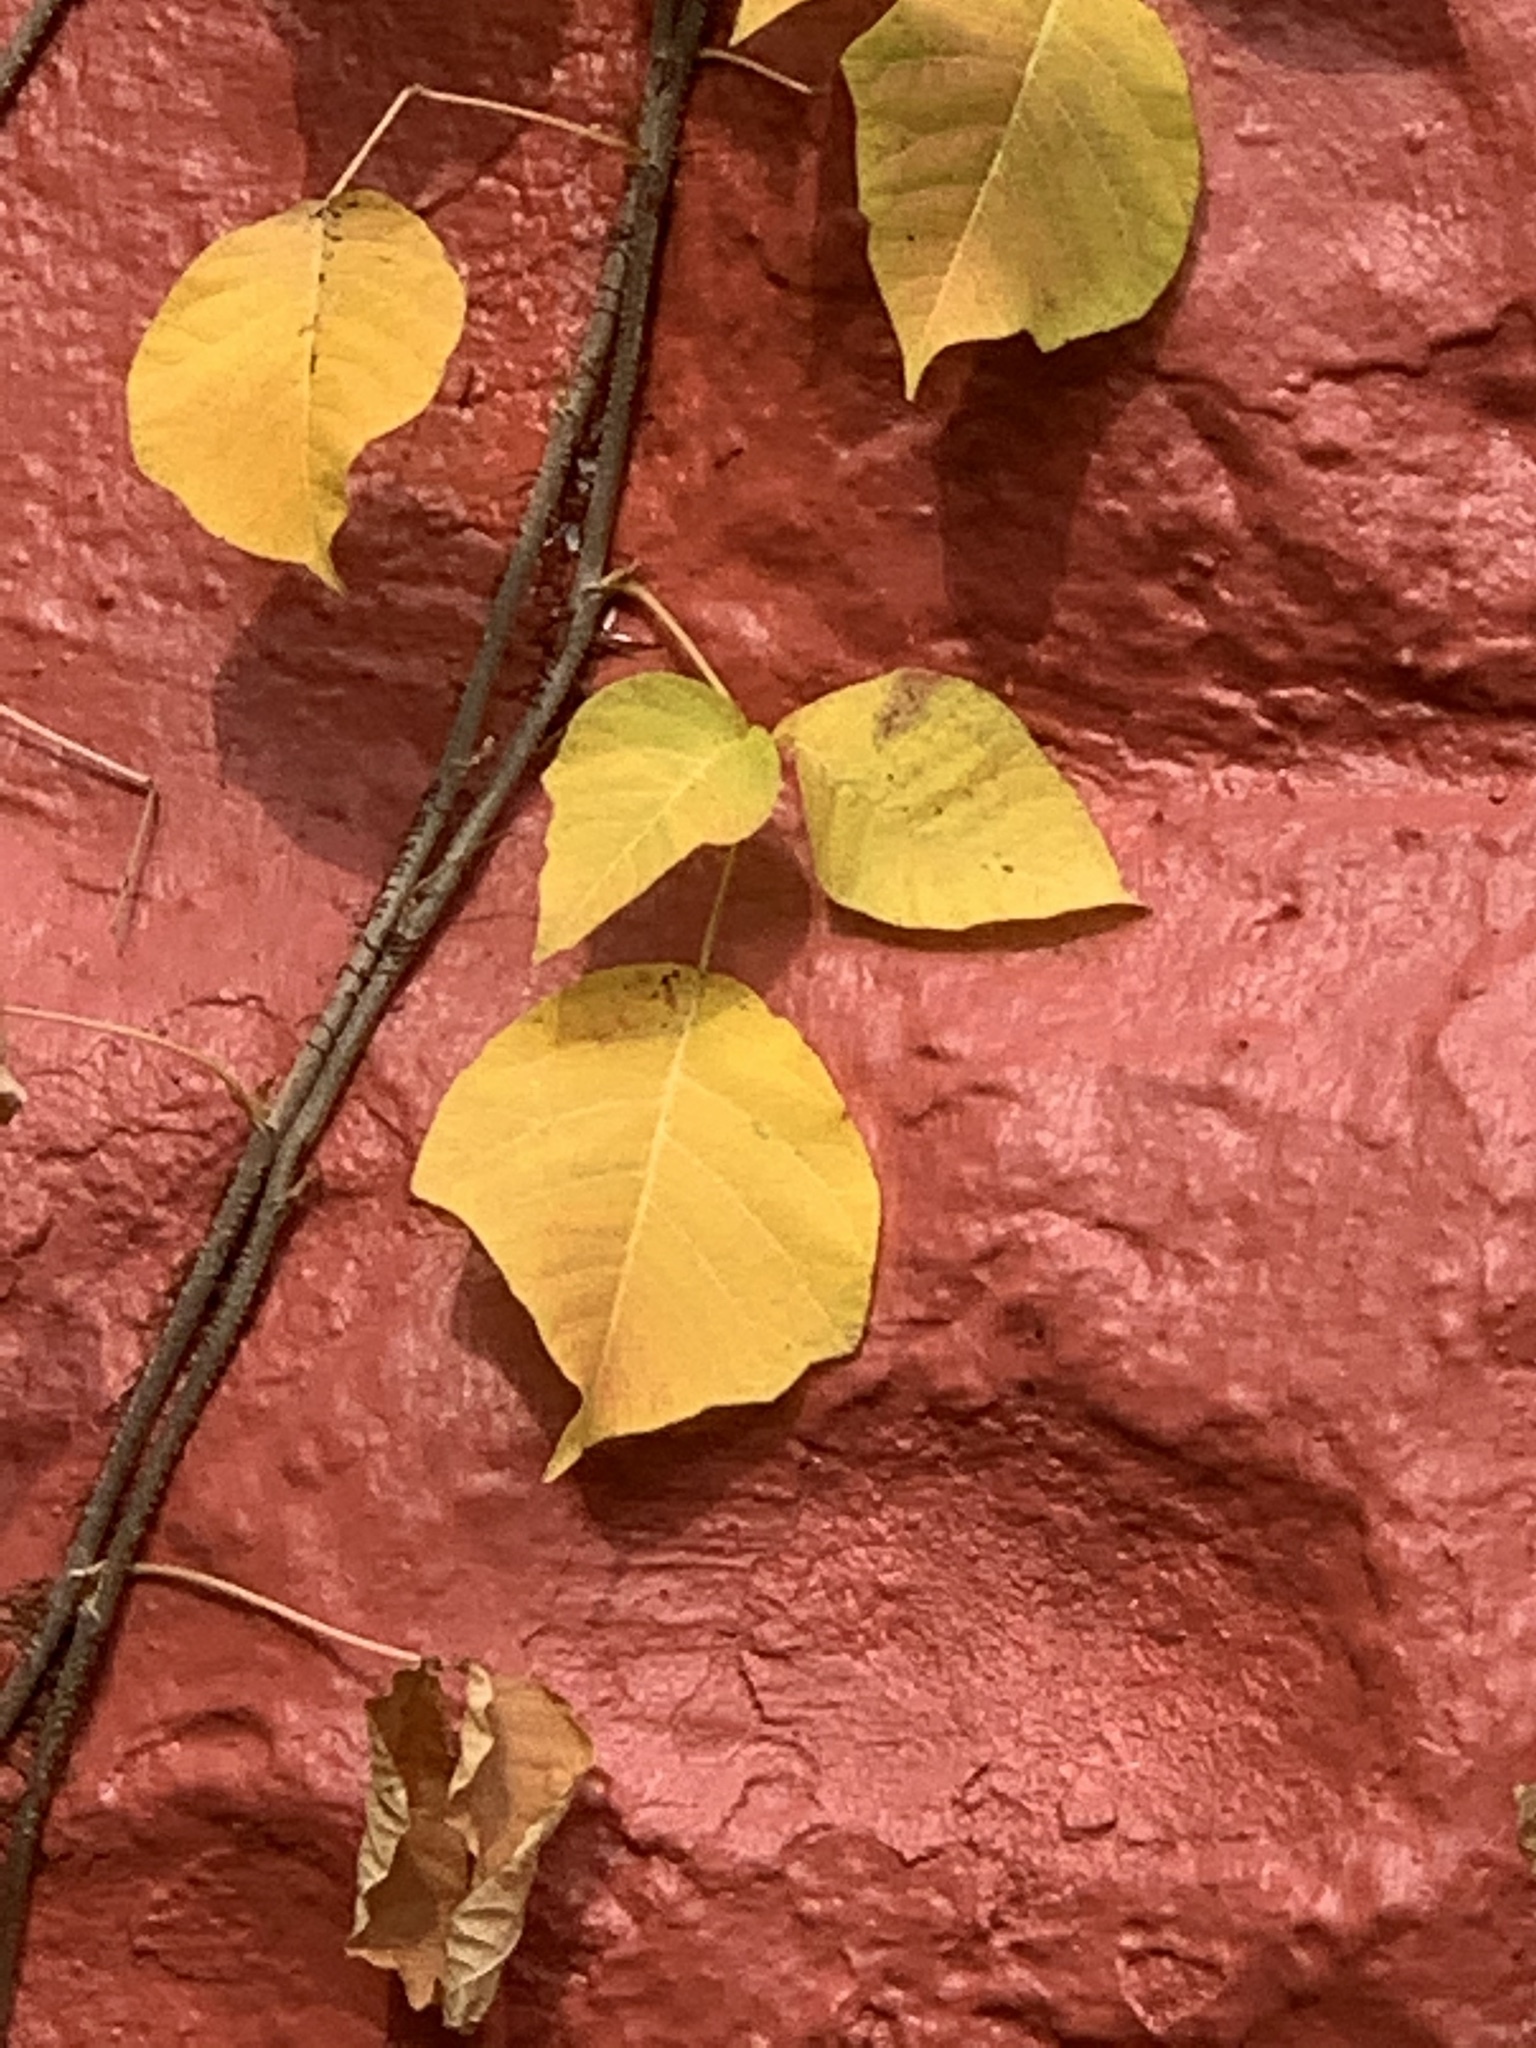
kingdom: Plantae
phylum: Tracheophyta
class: Magnoliopsida
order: Sapindales
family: Anacardiaceae
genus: Toxicodendron
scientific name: Toxicodendron radicans
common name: Poison ivy
